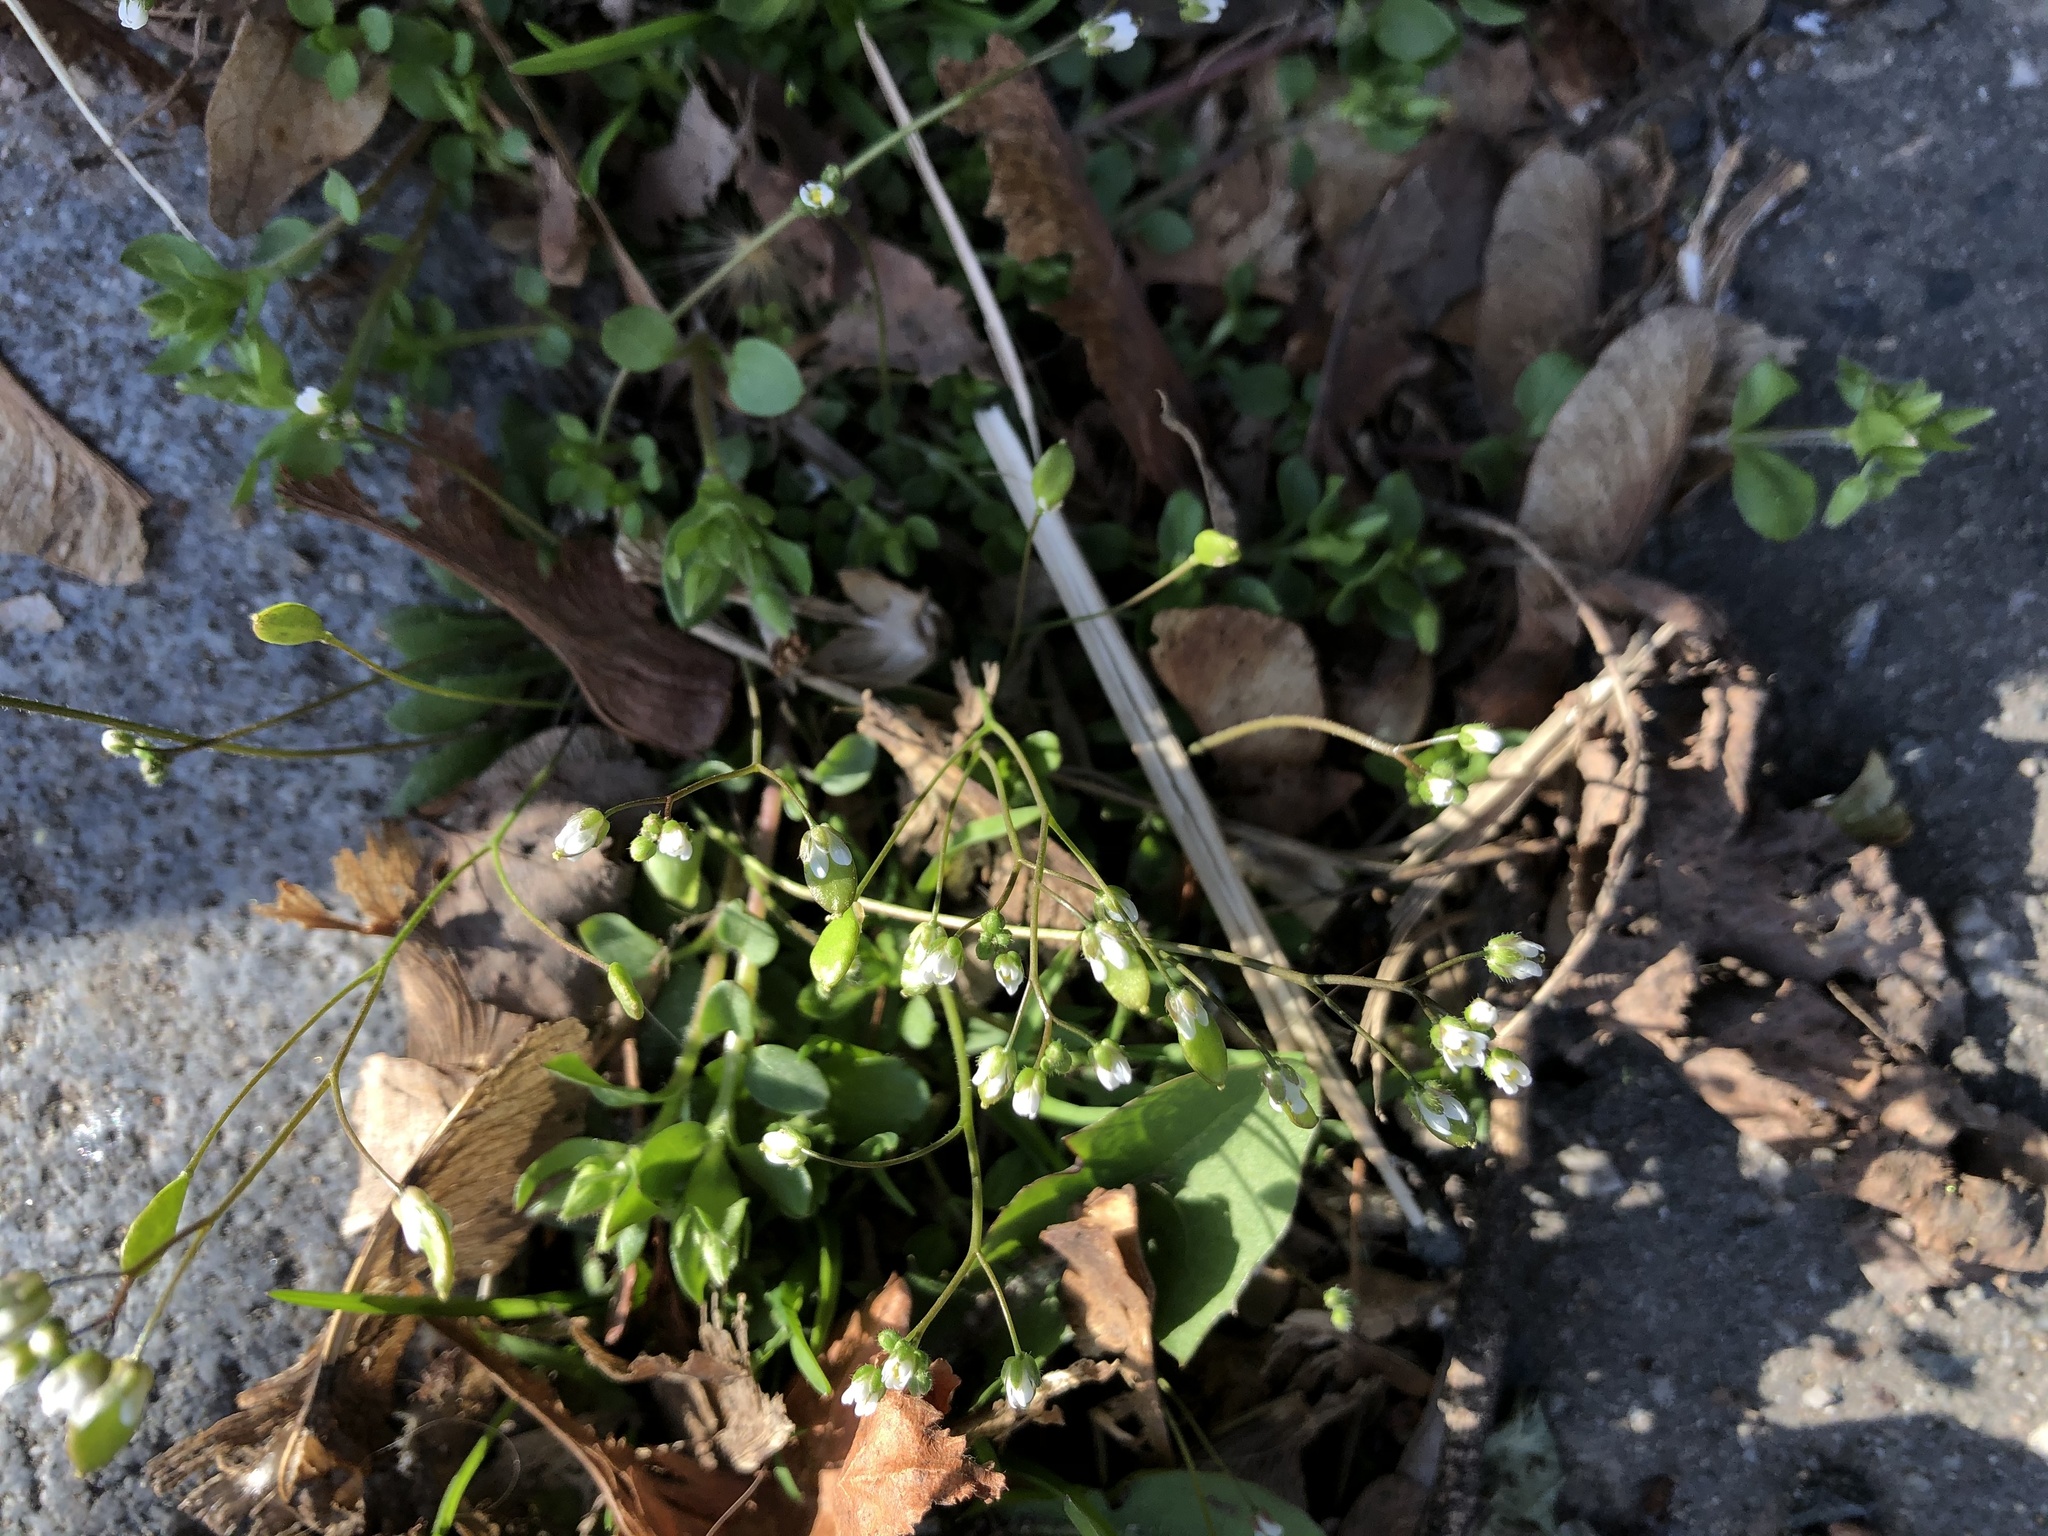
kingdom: Plantae
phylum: Tracheophyta
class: Magnoliopsida
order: Brassicales
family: Brassicaceae
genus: Draba
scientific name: Draba verna
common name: Spring draba
